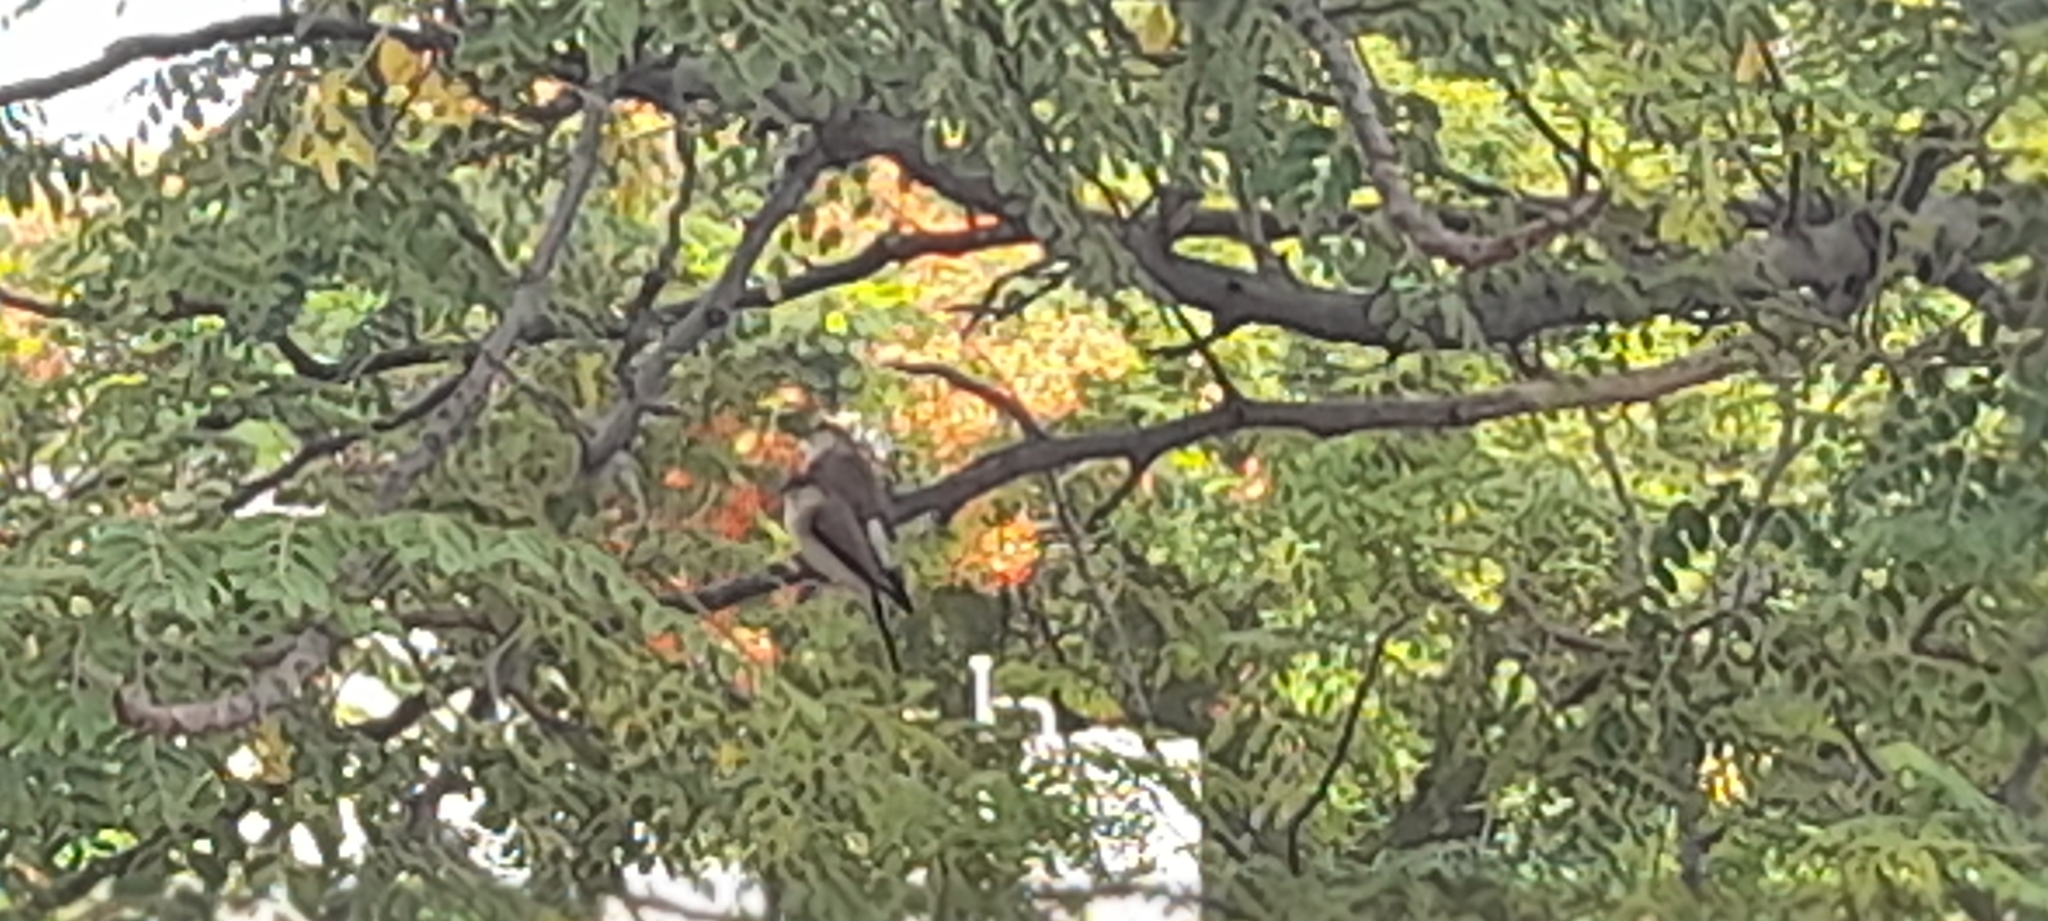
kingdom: Animalia
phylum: Chordata
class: Aves
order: Passeriformes
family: Estrildidae
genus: Euodice
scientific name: Euodice malabarica
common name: Indian silverbill
